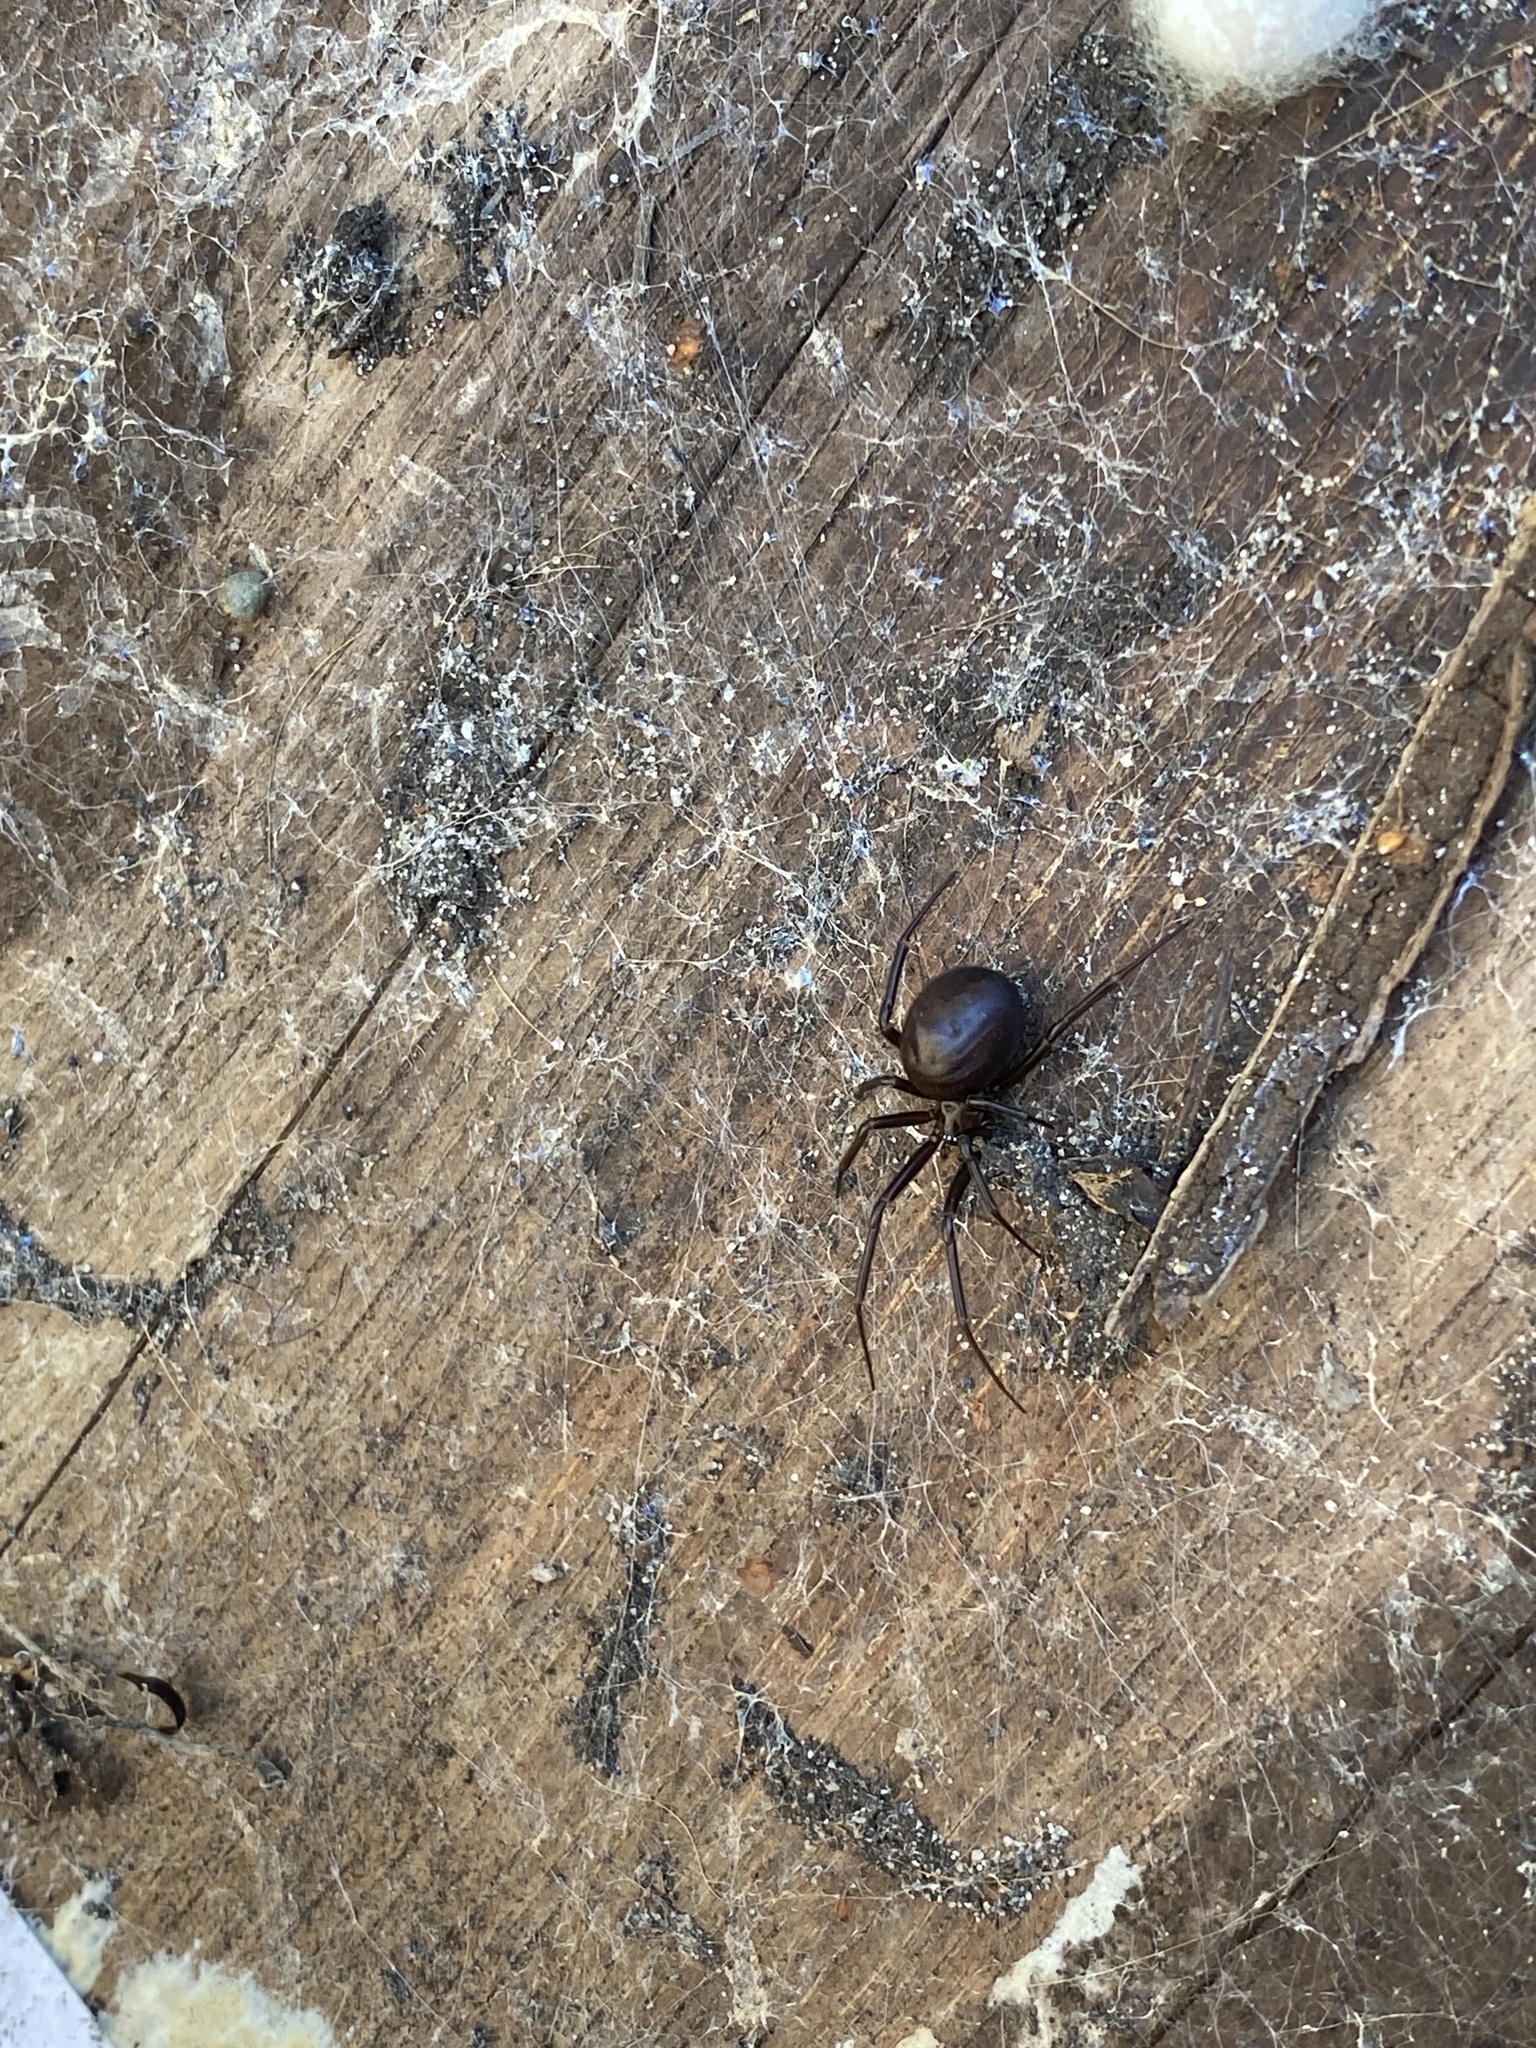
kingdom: Animalia
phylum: Arthropoda
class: Arachnida
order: Araneae
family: Theridiidae
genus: Steatoda
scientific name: Steatoda grossa
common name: False black widow
